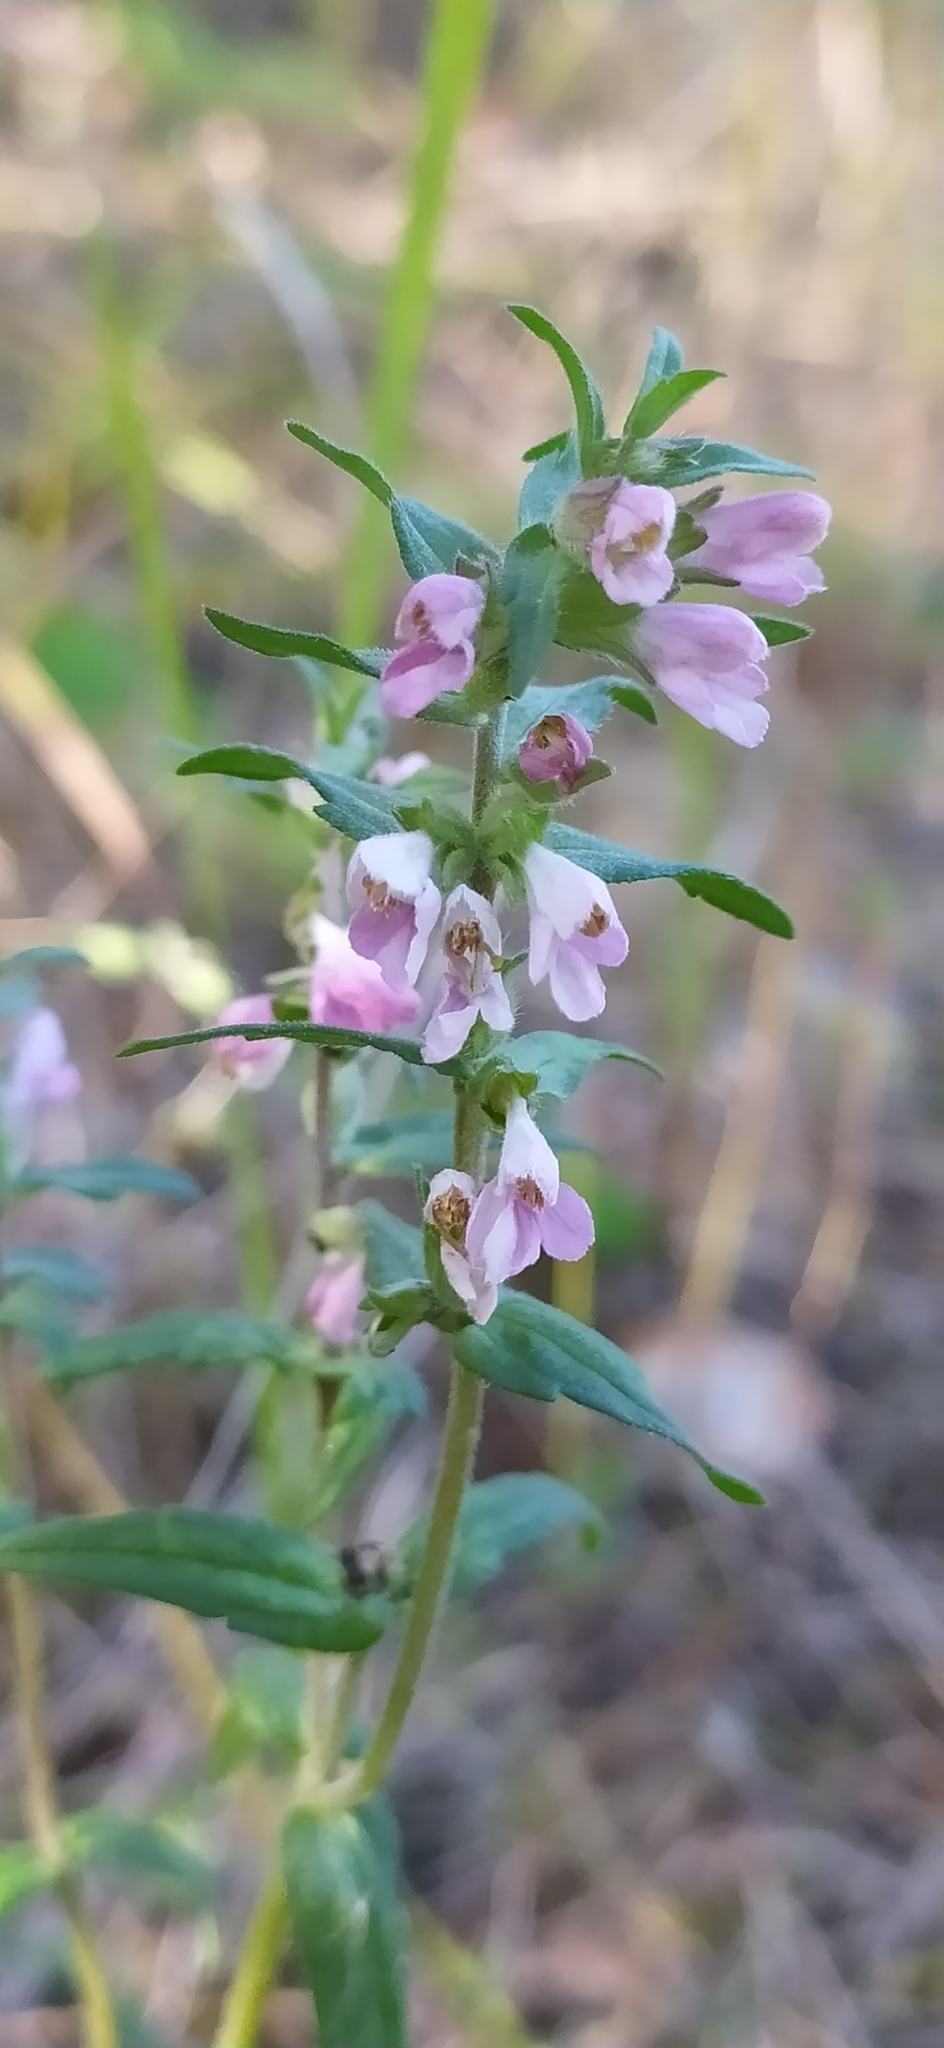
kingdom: Plantae
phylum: Tracheophyta
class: Magnoliopsida
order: Lamiales
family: Orobanchaceae
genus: Odontites
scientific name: Odontites vulgaris
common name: Broomrape
